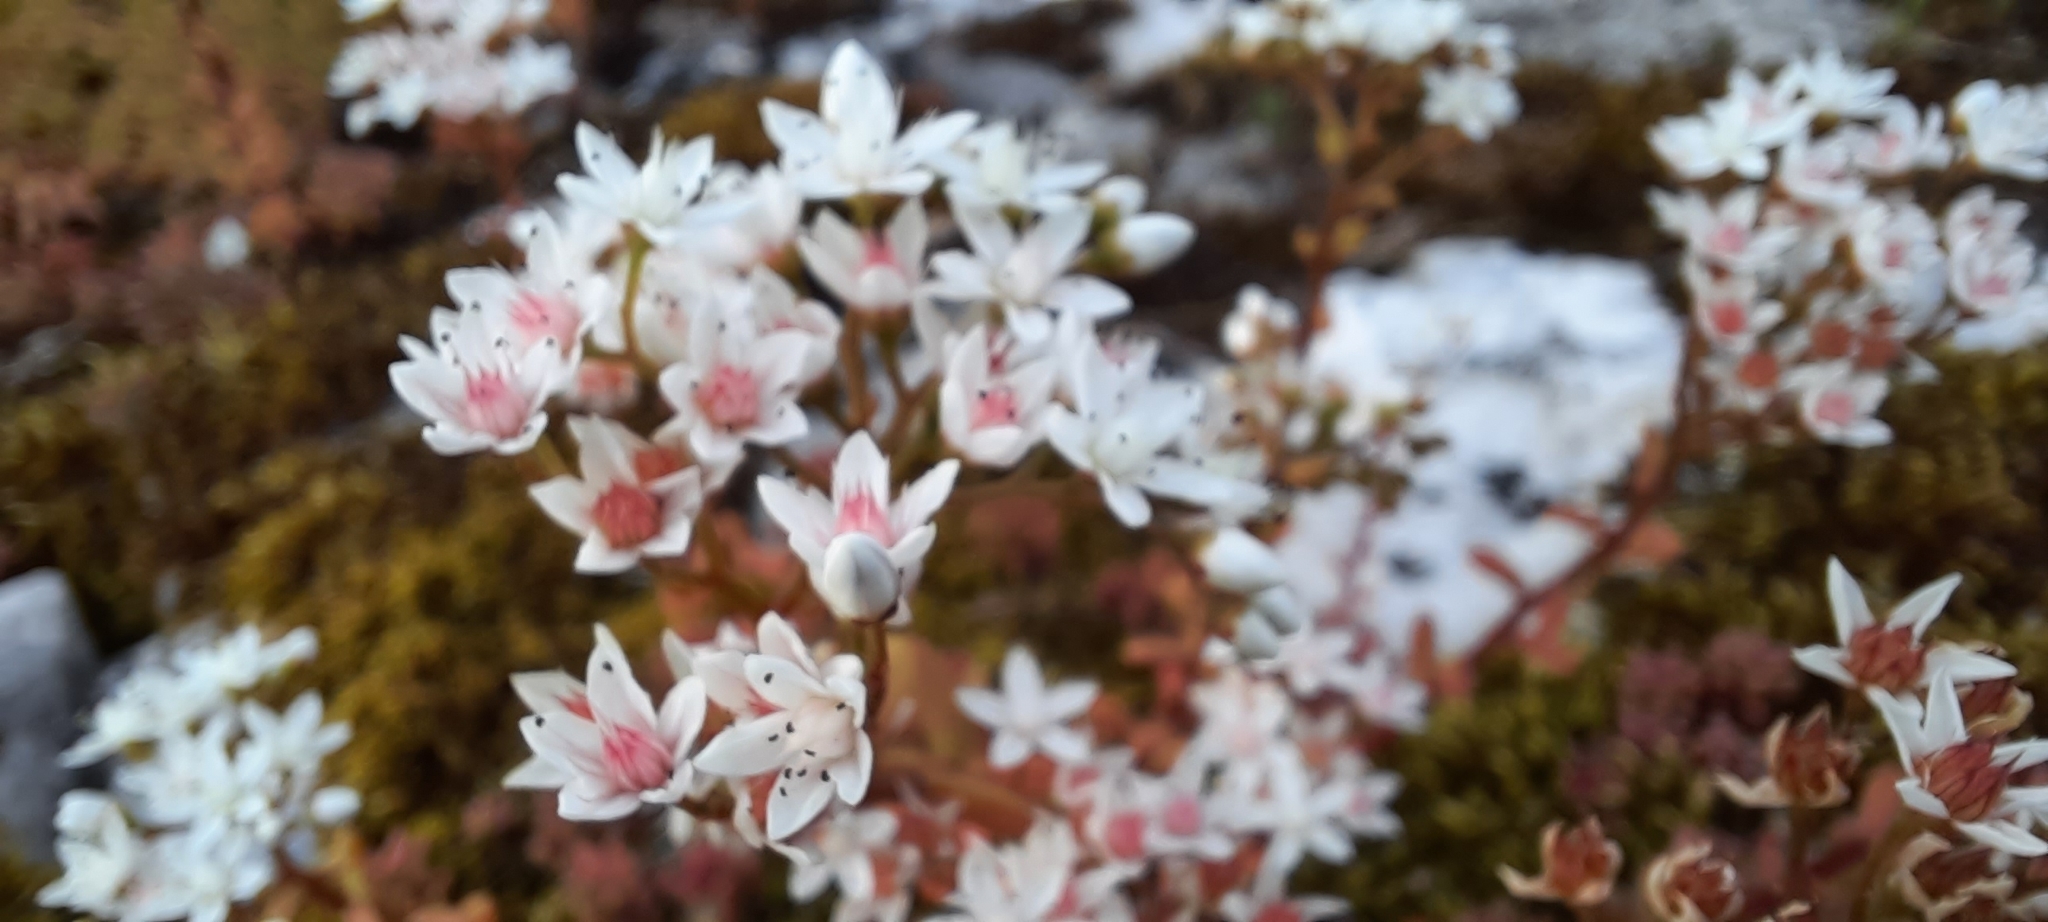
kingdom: Plantae
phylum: Tracheophyta
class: Magnoliopsida
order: Saxifragales
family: Crassulaceae
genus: Sedum
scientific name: Sedum album
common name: White stonecrop
